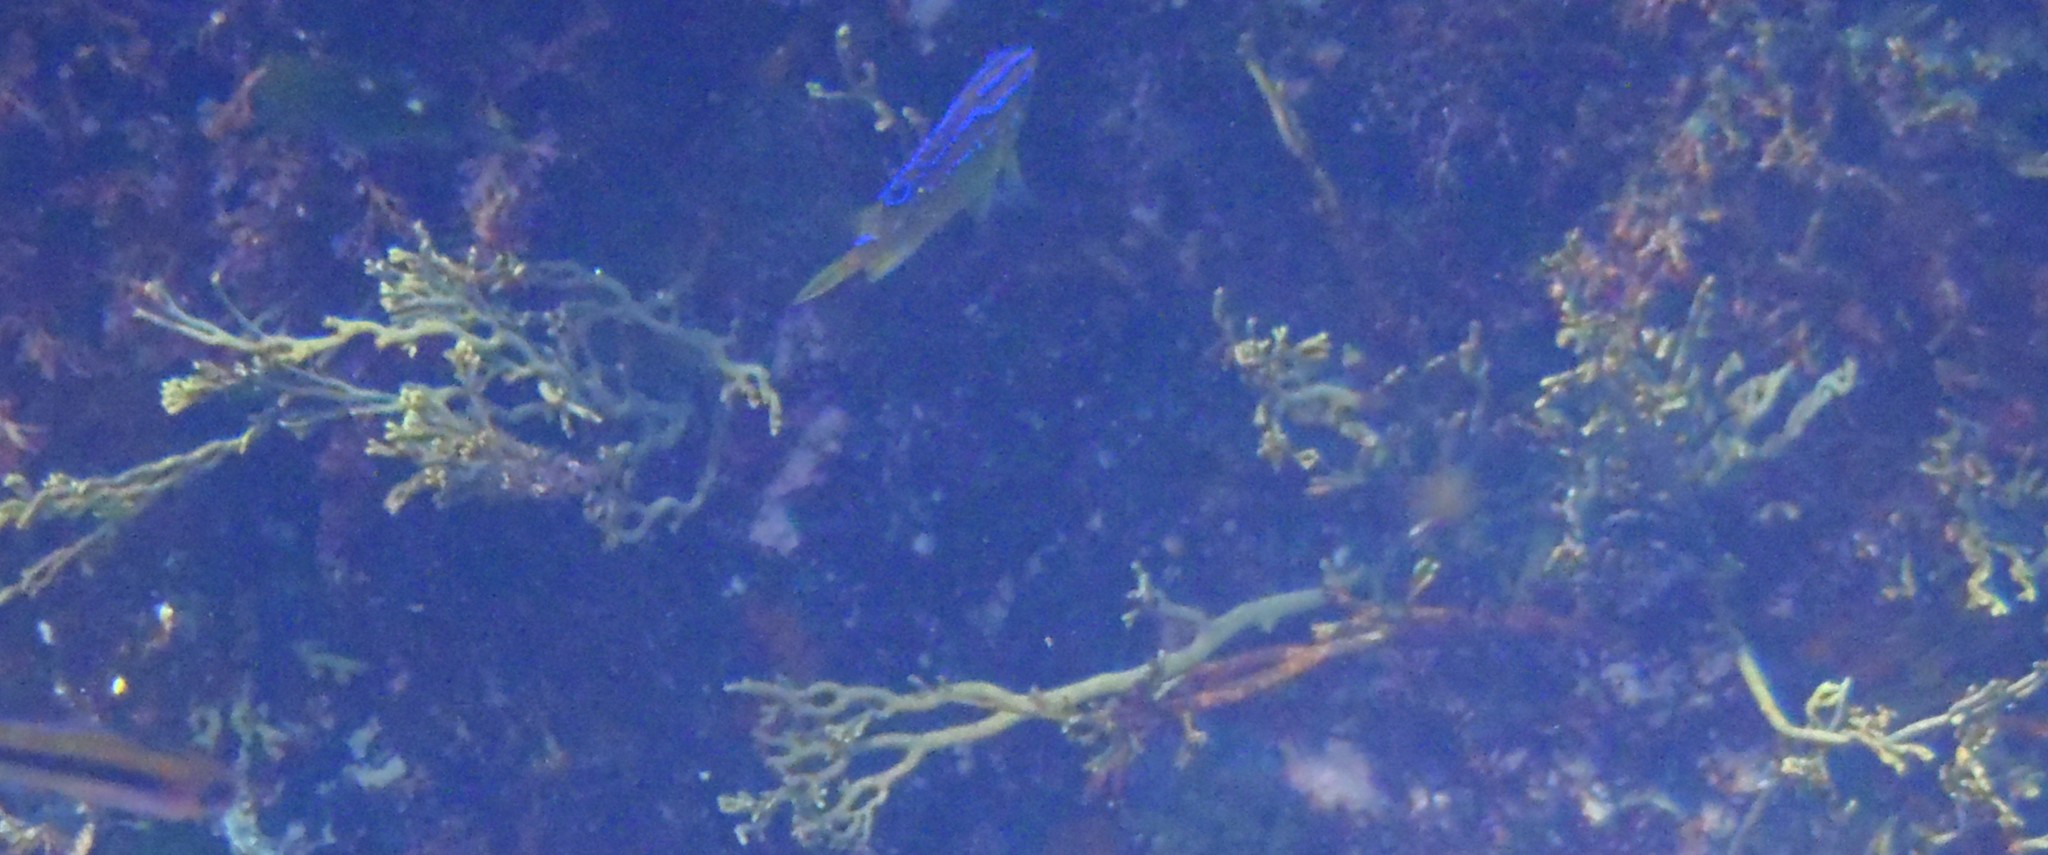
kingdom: Animalia
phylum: Chordata
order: Perciformes
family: Pomacentridae
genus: Parma
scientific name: Parma alboscapularis
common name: Black angelfish
